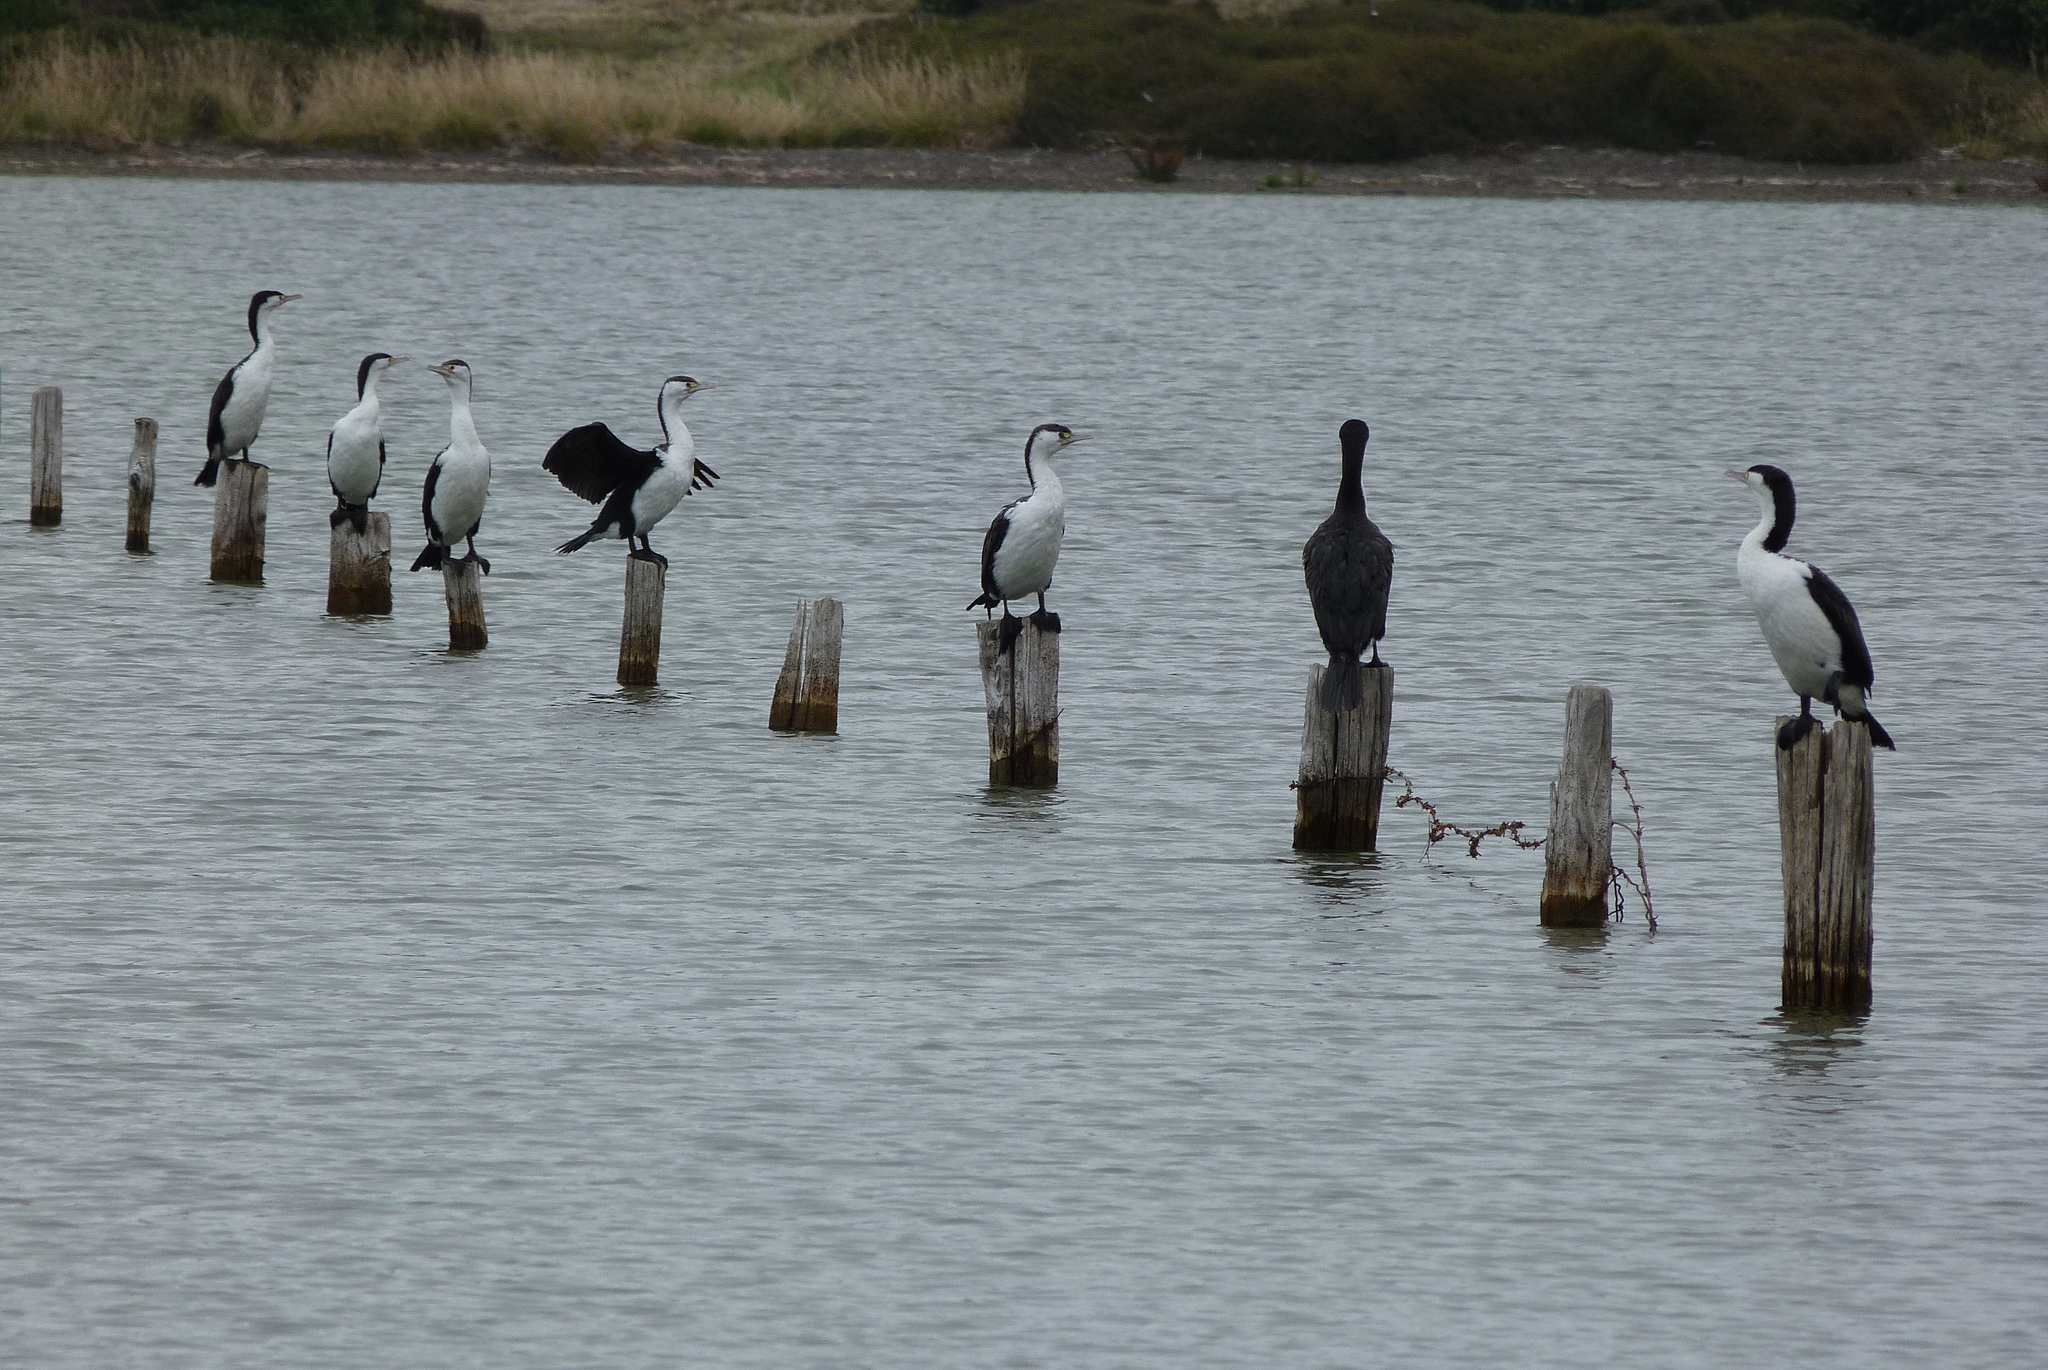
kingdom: Animalia
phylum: Chordata
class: Aves
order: Suliformes
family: Phalacrocoracidae
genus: Phalacrocorax
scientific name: Phalacrocorax varius
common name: Pied cormorant
